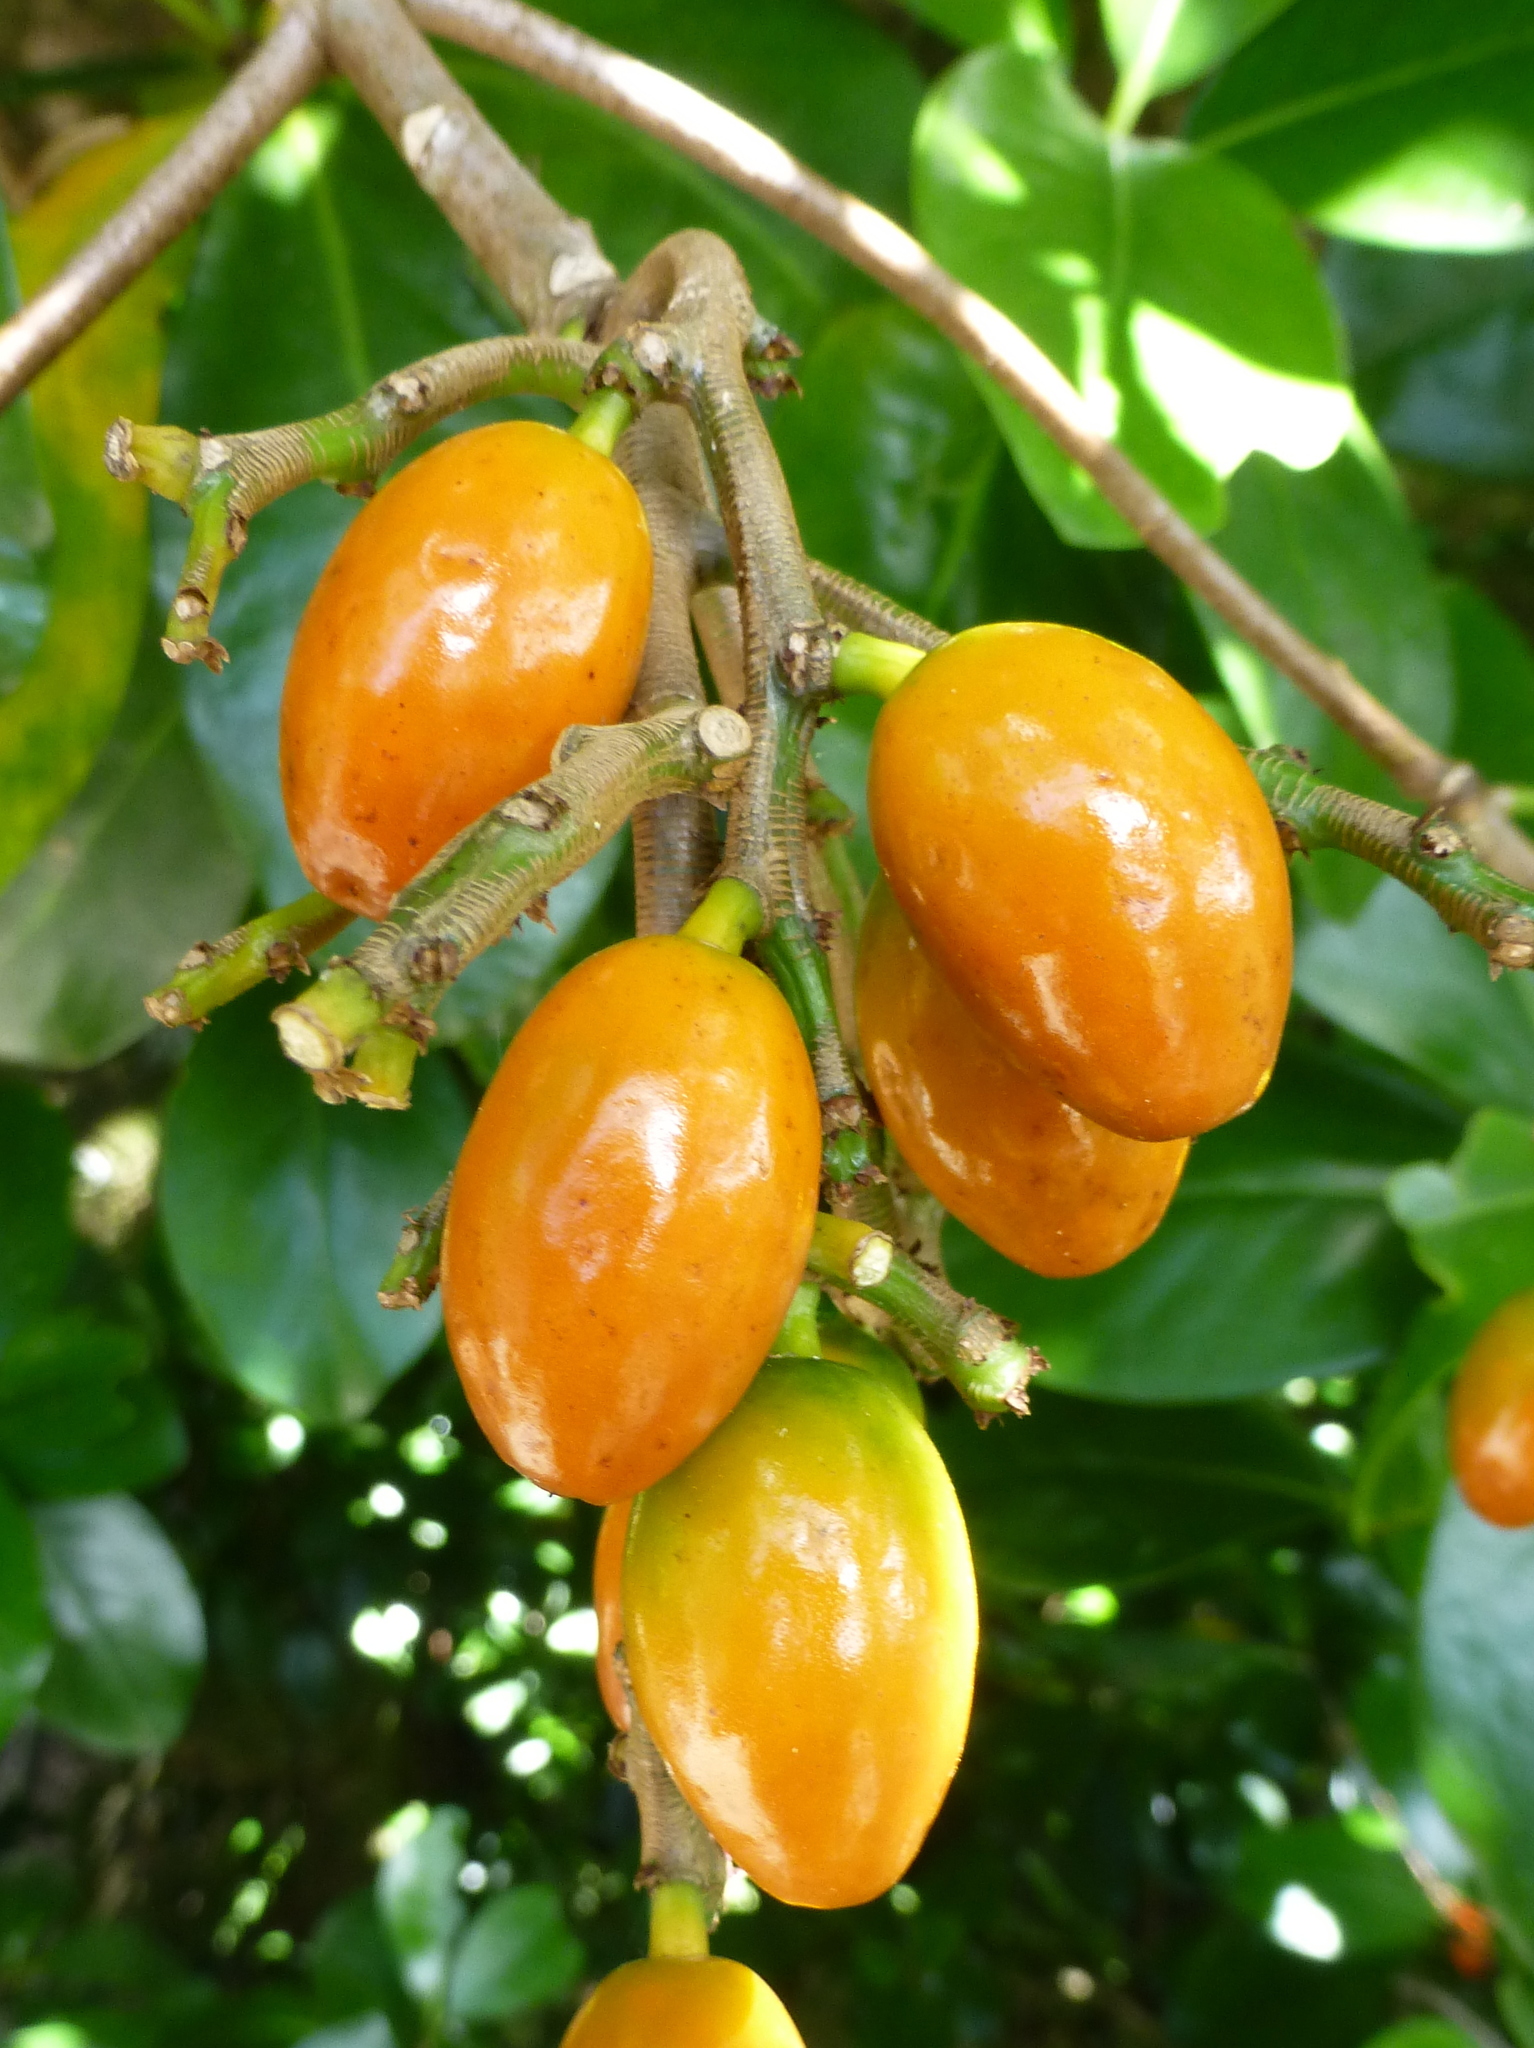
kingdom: Plantae
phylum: Tracheophyta
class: Magnoliopsida
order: Cucurbitales
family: Corynocarpaceae
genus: Corynocarpus
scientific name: Corynocarpus laevigatus
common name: New zealand laurel
